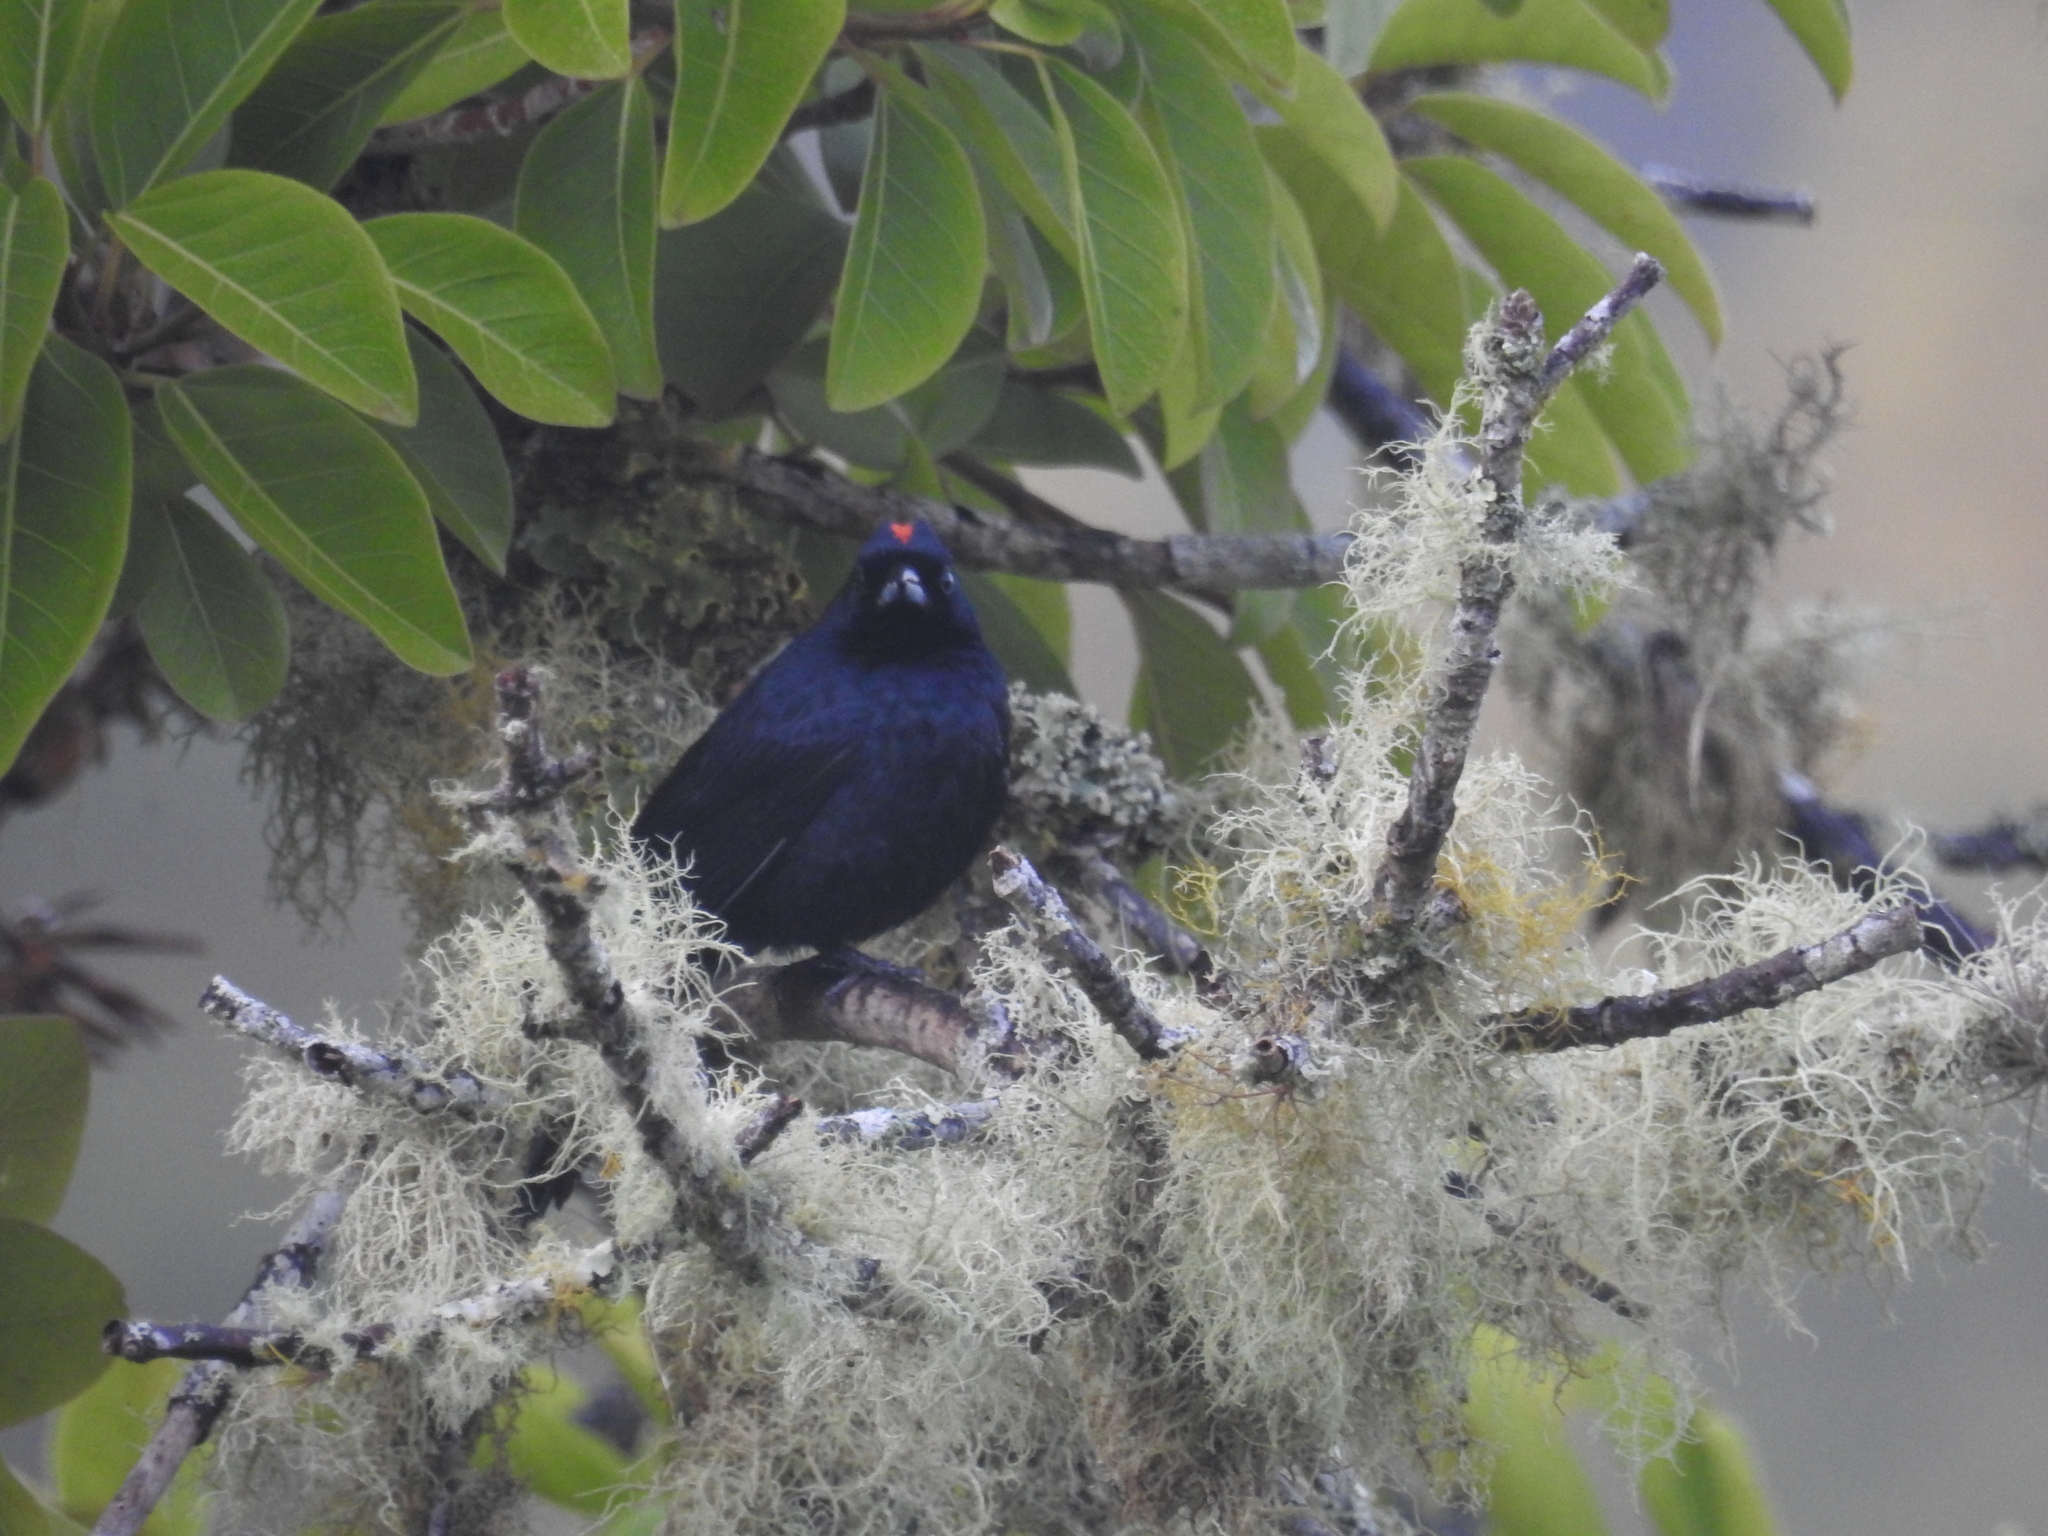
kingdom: Animalia
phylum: Chordata
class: Aves
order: Passeriformes
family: Thraupidae
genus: Tachyphonus
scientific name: Tachyphonus coronatus
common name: Ruby-crowned tanager
